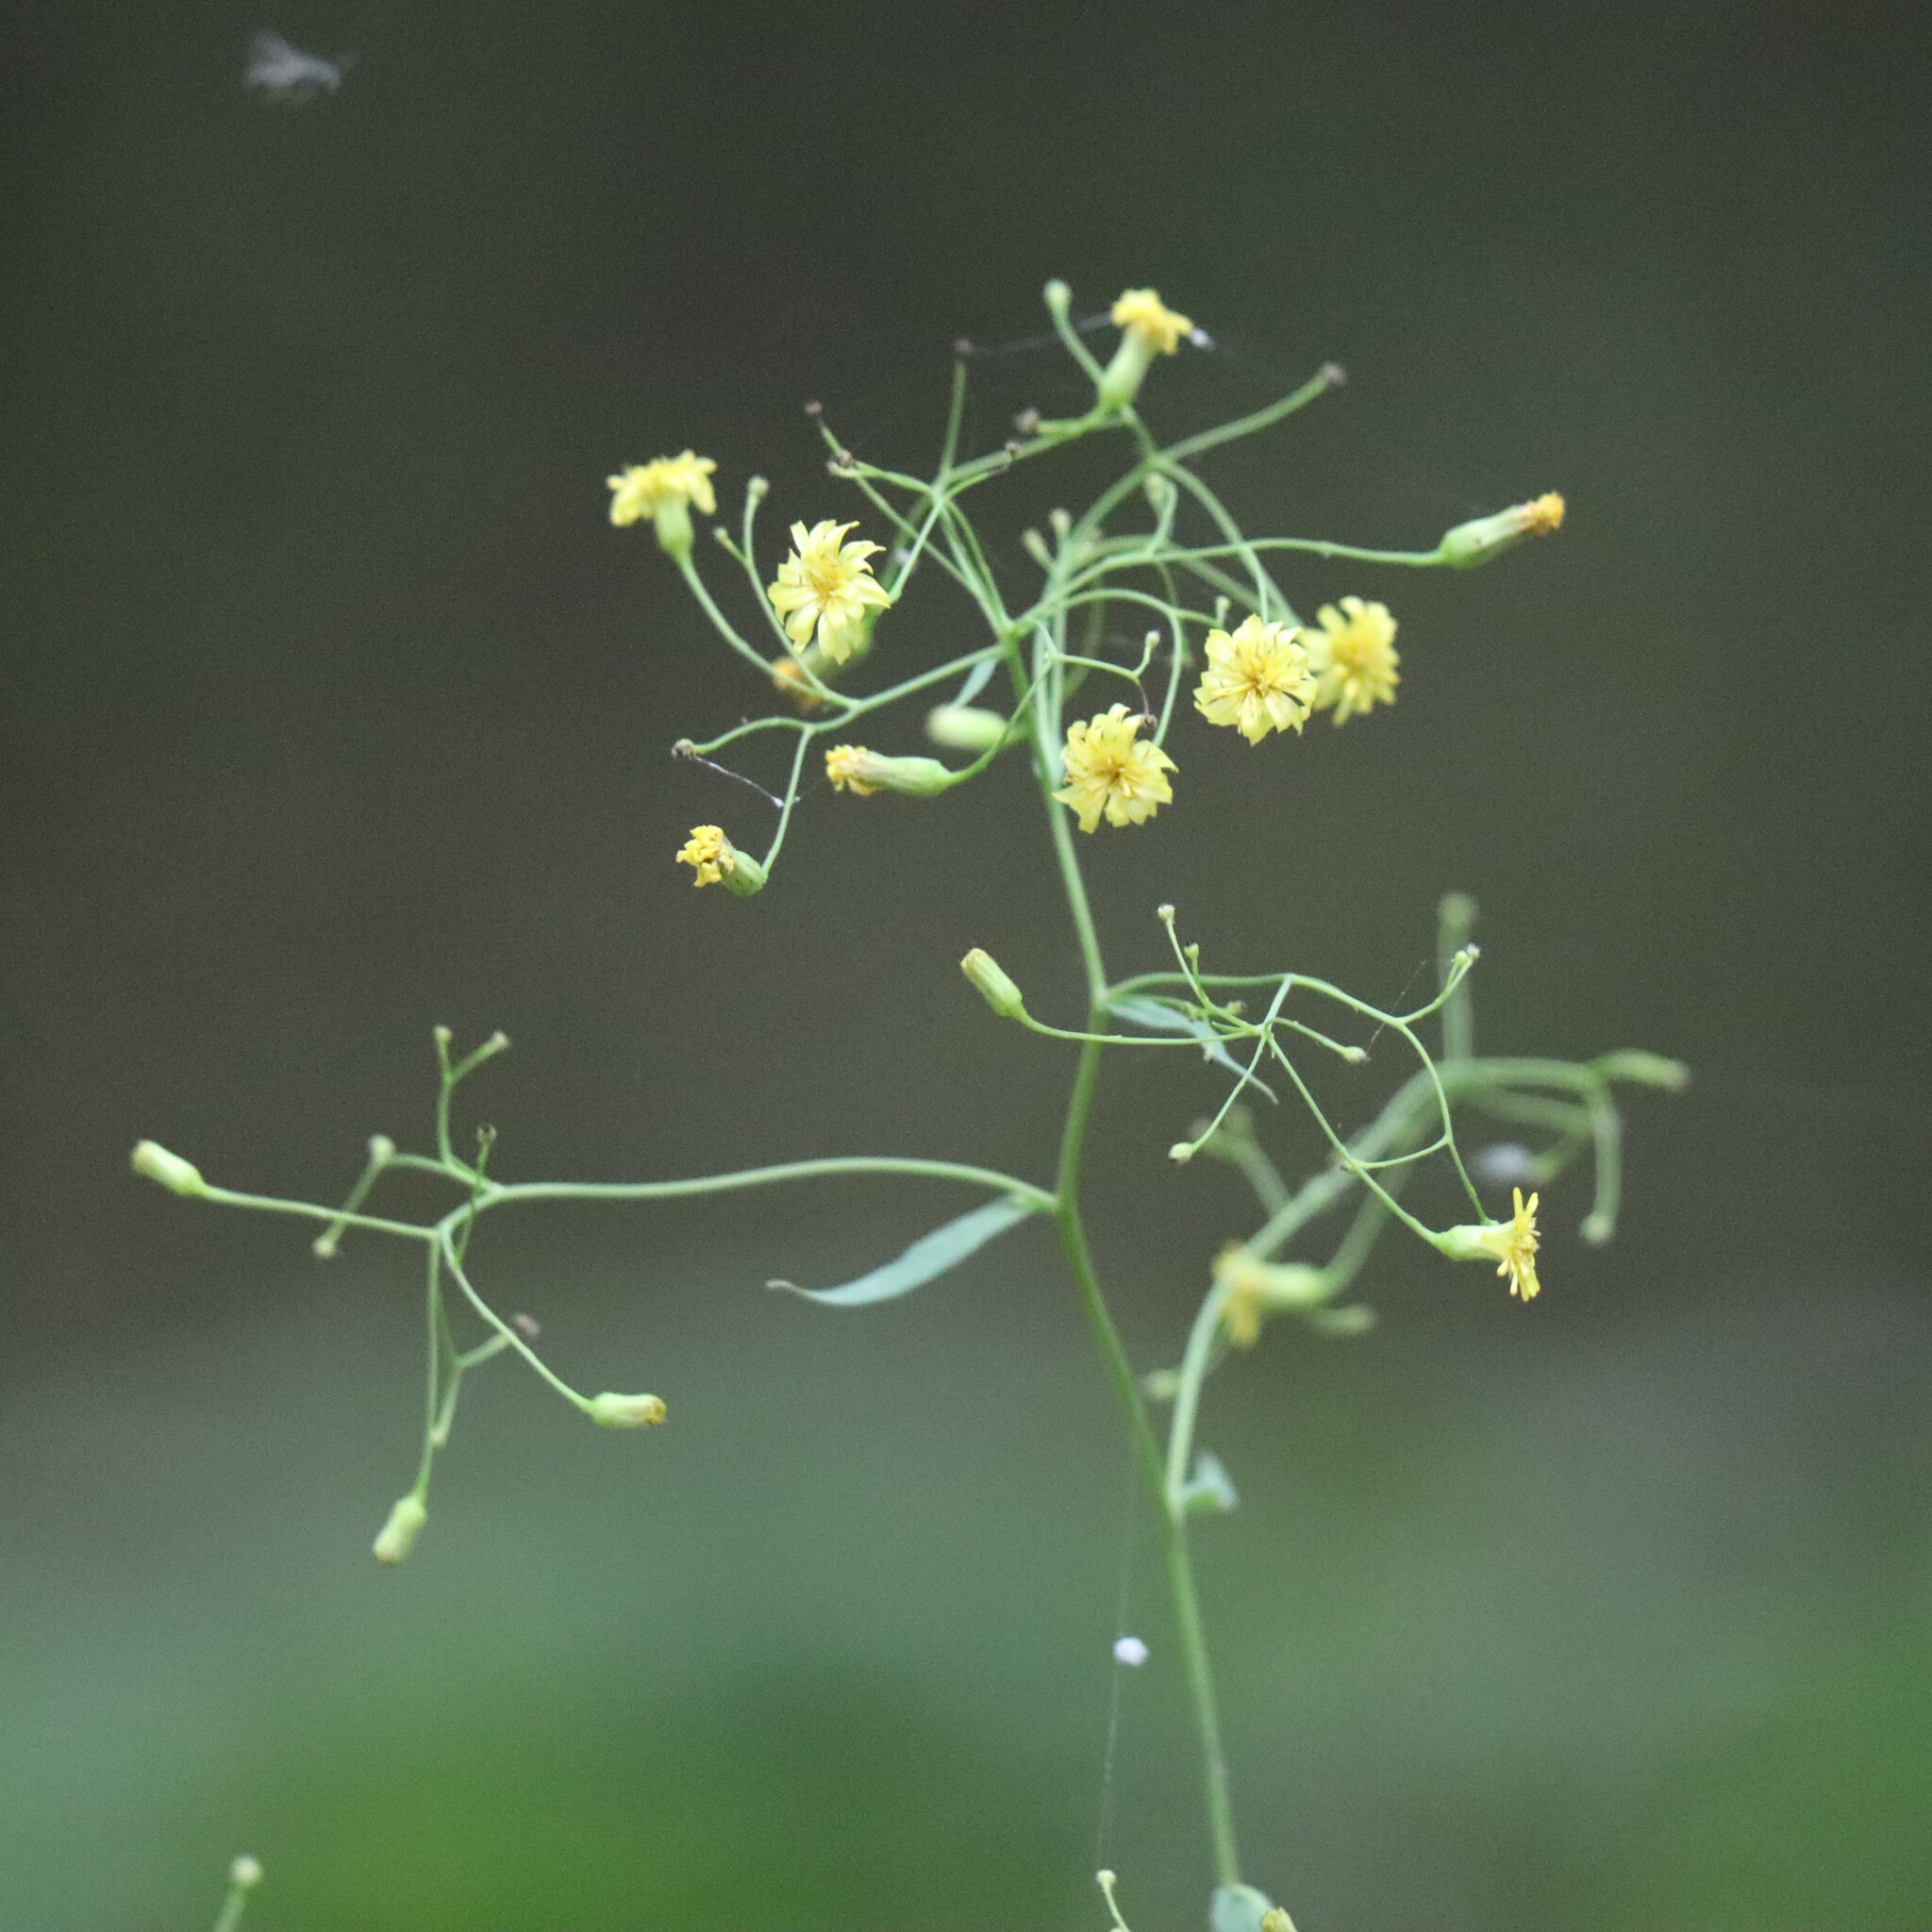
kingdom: Plantae
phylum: Tracheophyta
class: Magnoliopsida
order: Asterales
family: Asteraceae
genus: Hieracium
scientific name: Hieracium paniculatum
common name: Allegheny hawkweed
